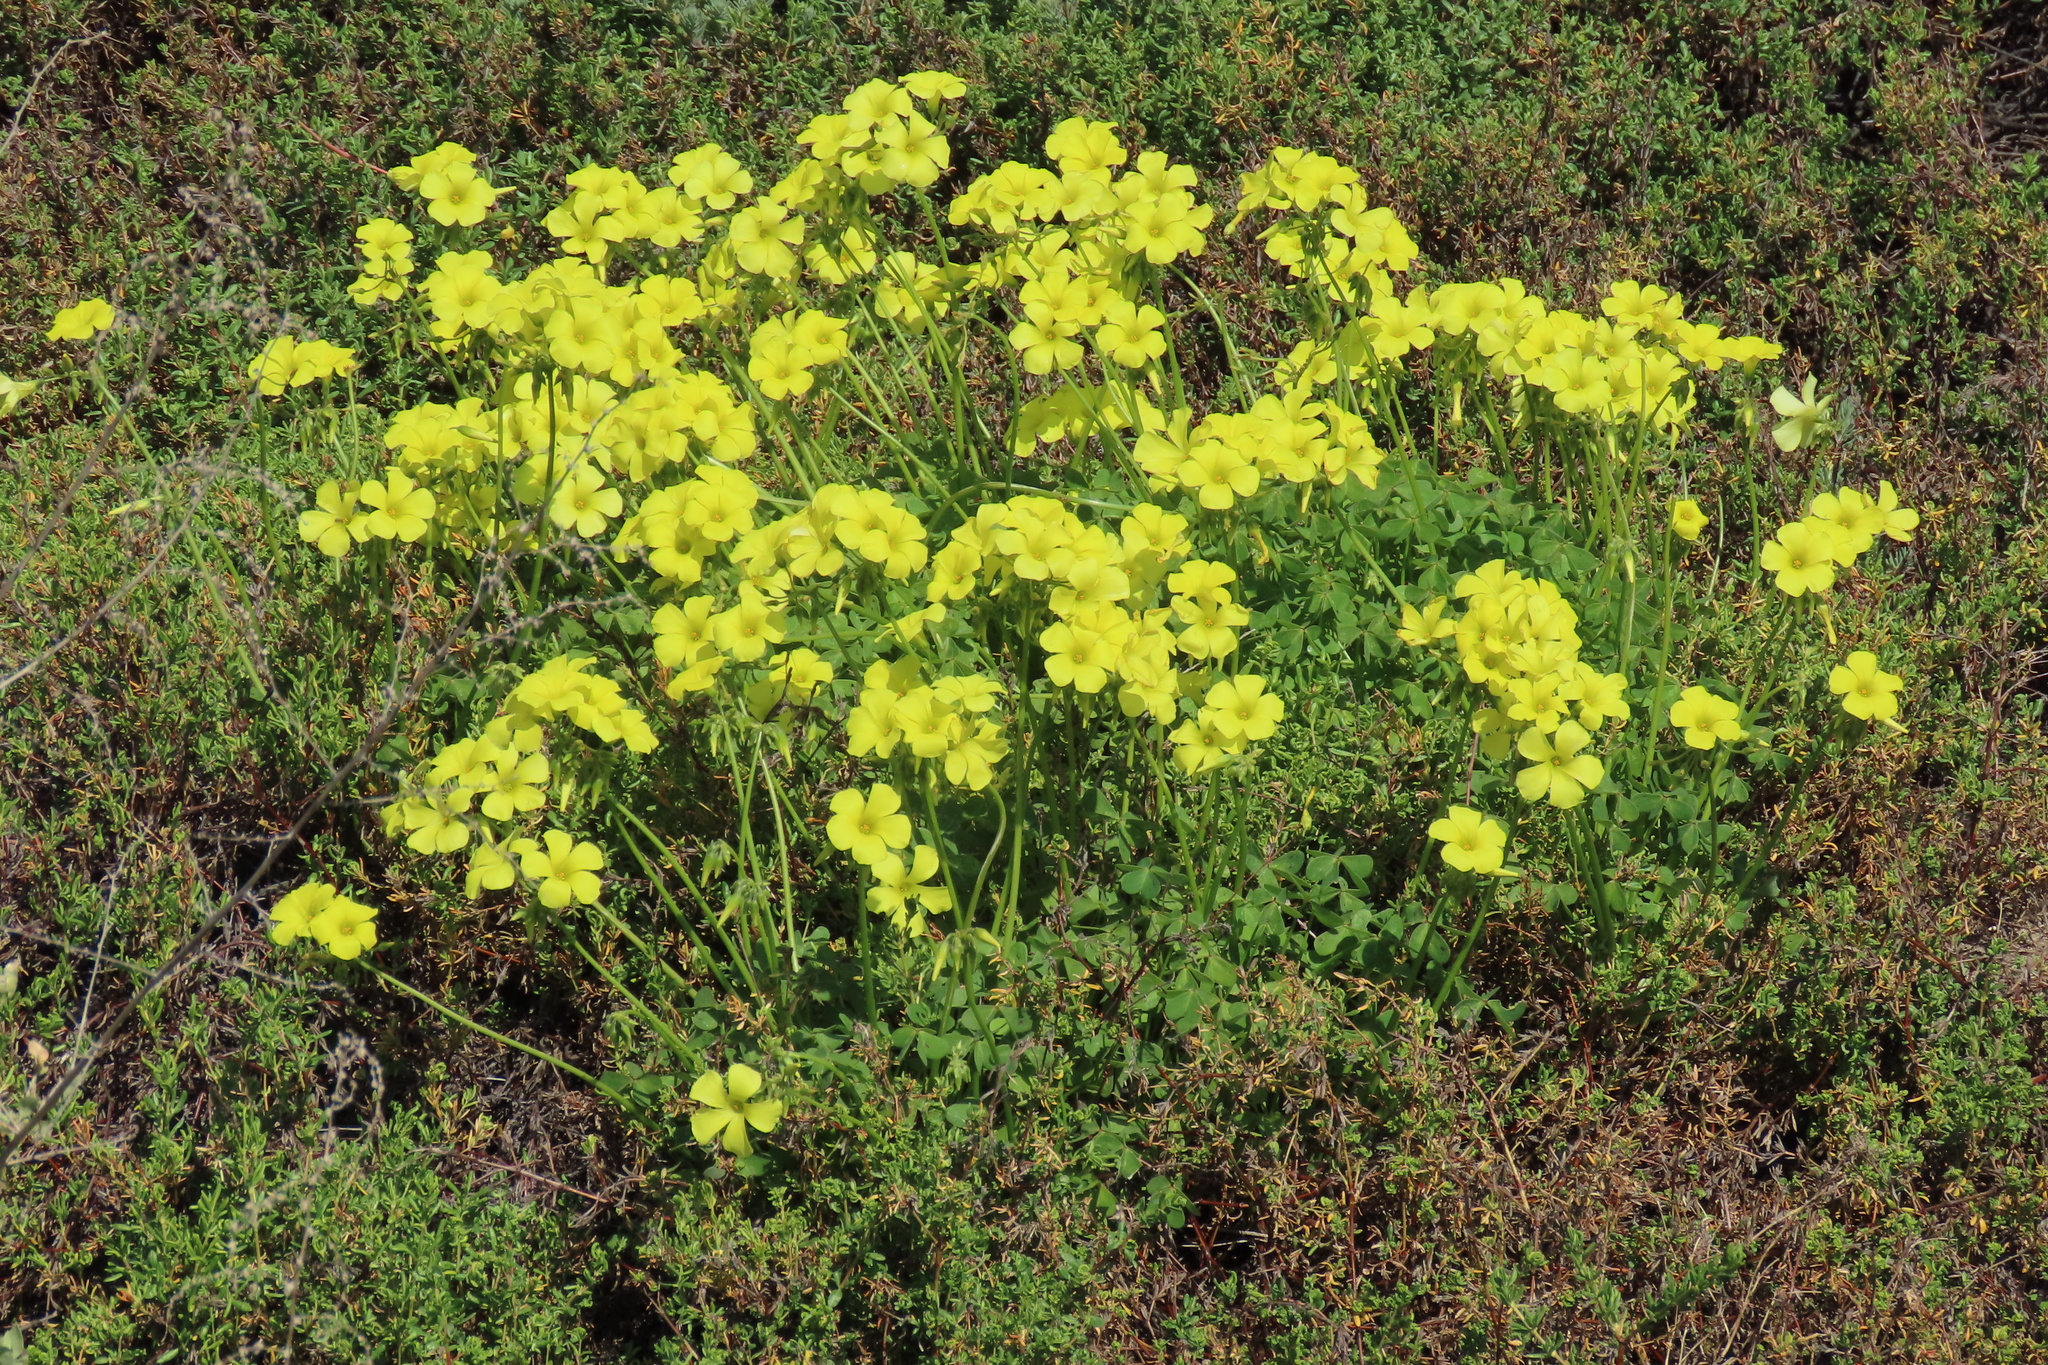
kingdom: Plantae
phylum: Tracheophyta
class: Magnoliopsida
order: Oxalidales
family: Oxalidaceae
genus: Oxalis
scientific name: Oxalis pes-caprae
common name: Bermuda-buttercup
